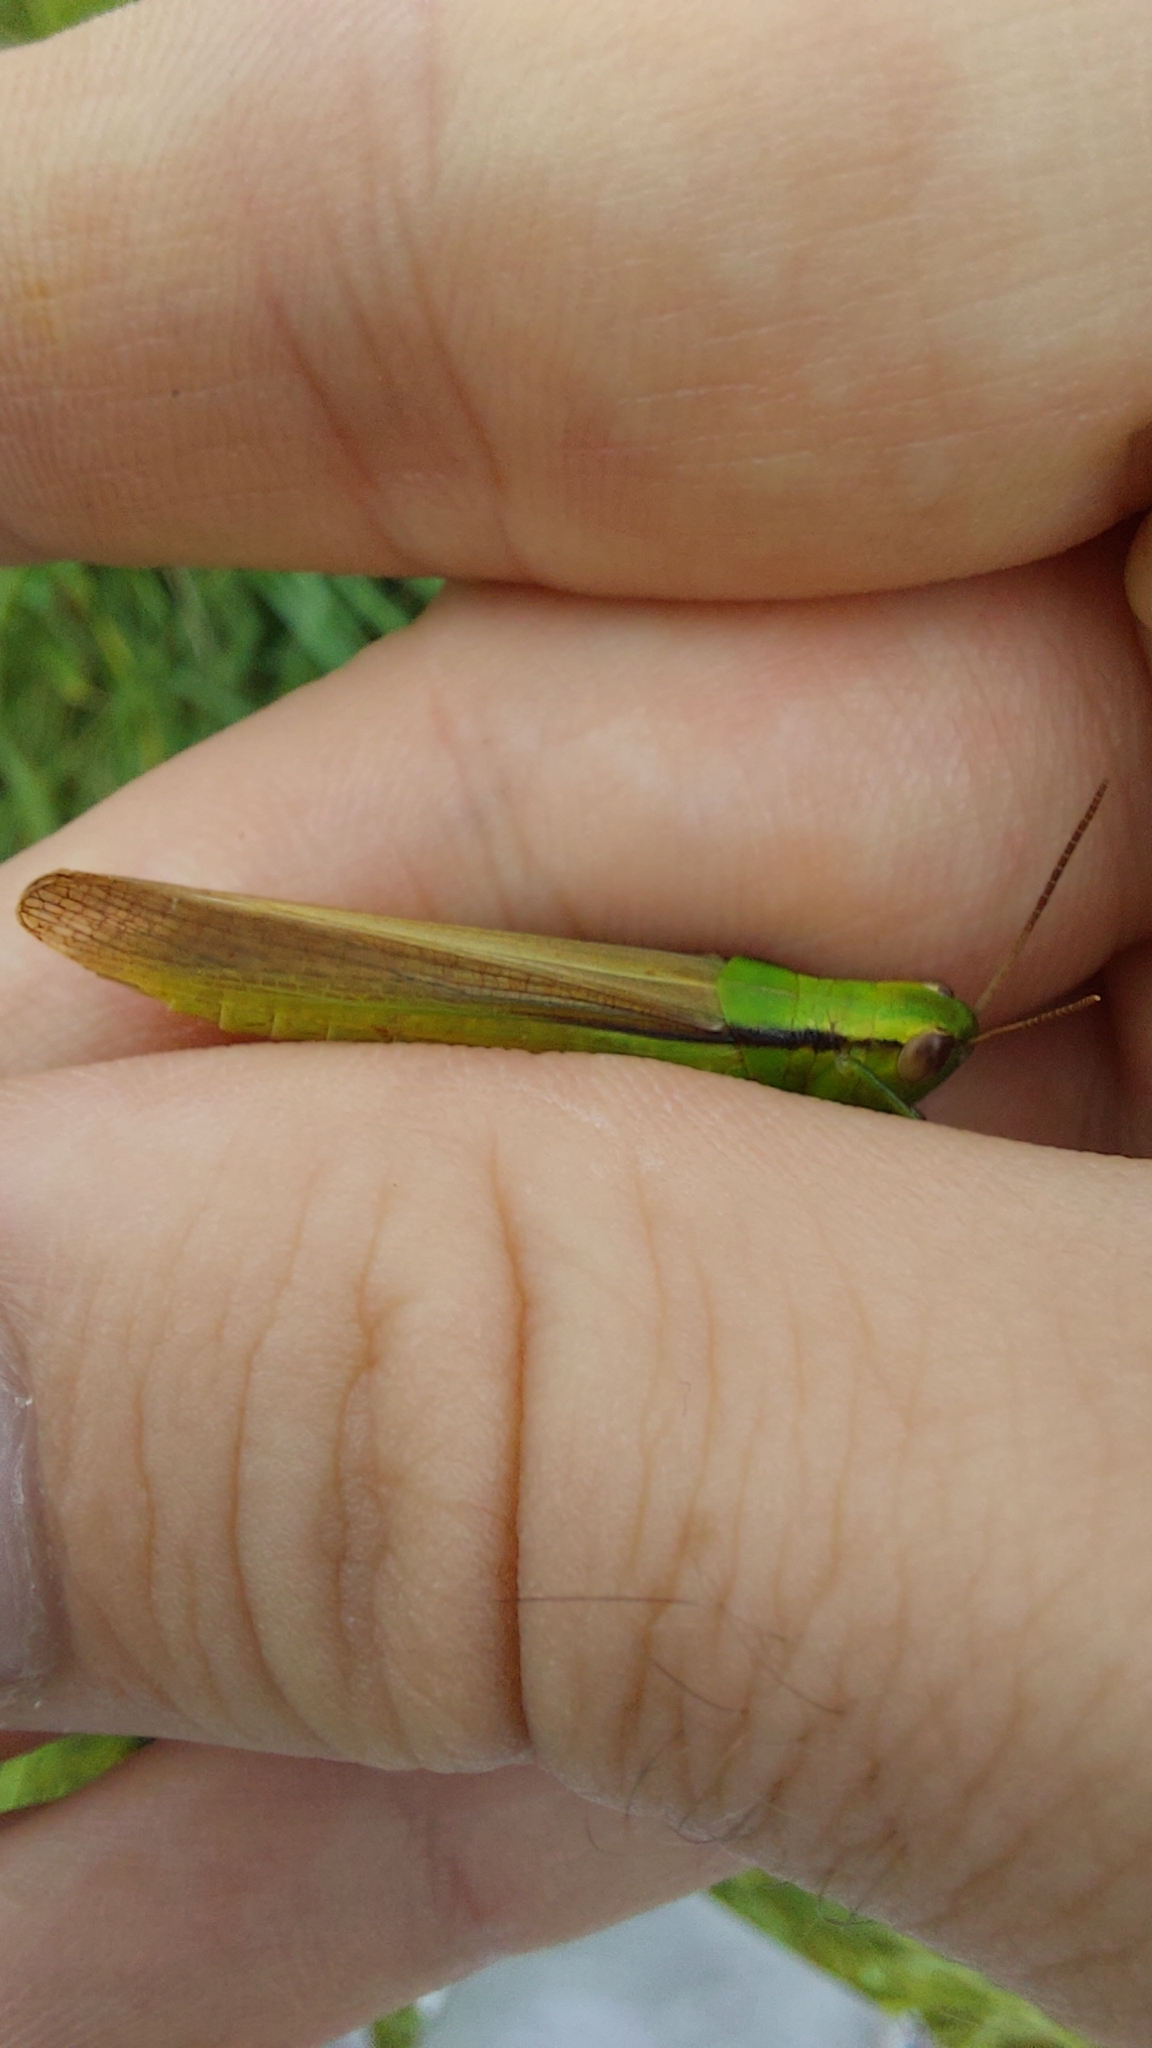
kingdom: Animalia
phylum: Arthropoda
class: Insecta
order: Orthoptera
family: Acrididae
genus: Mecostethus
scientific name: Mecostethus parapleurus
